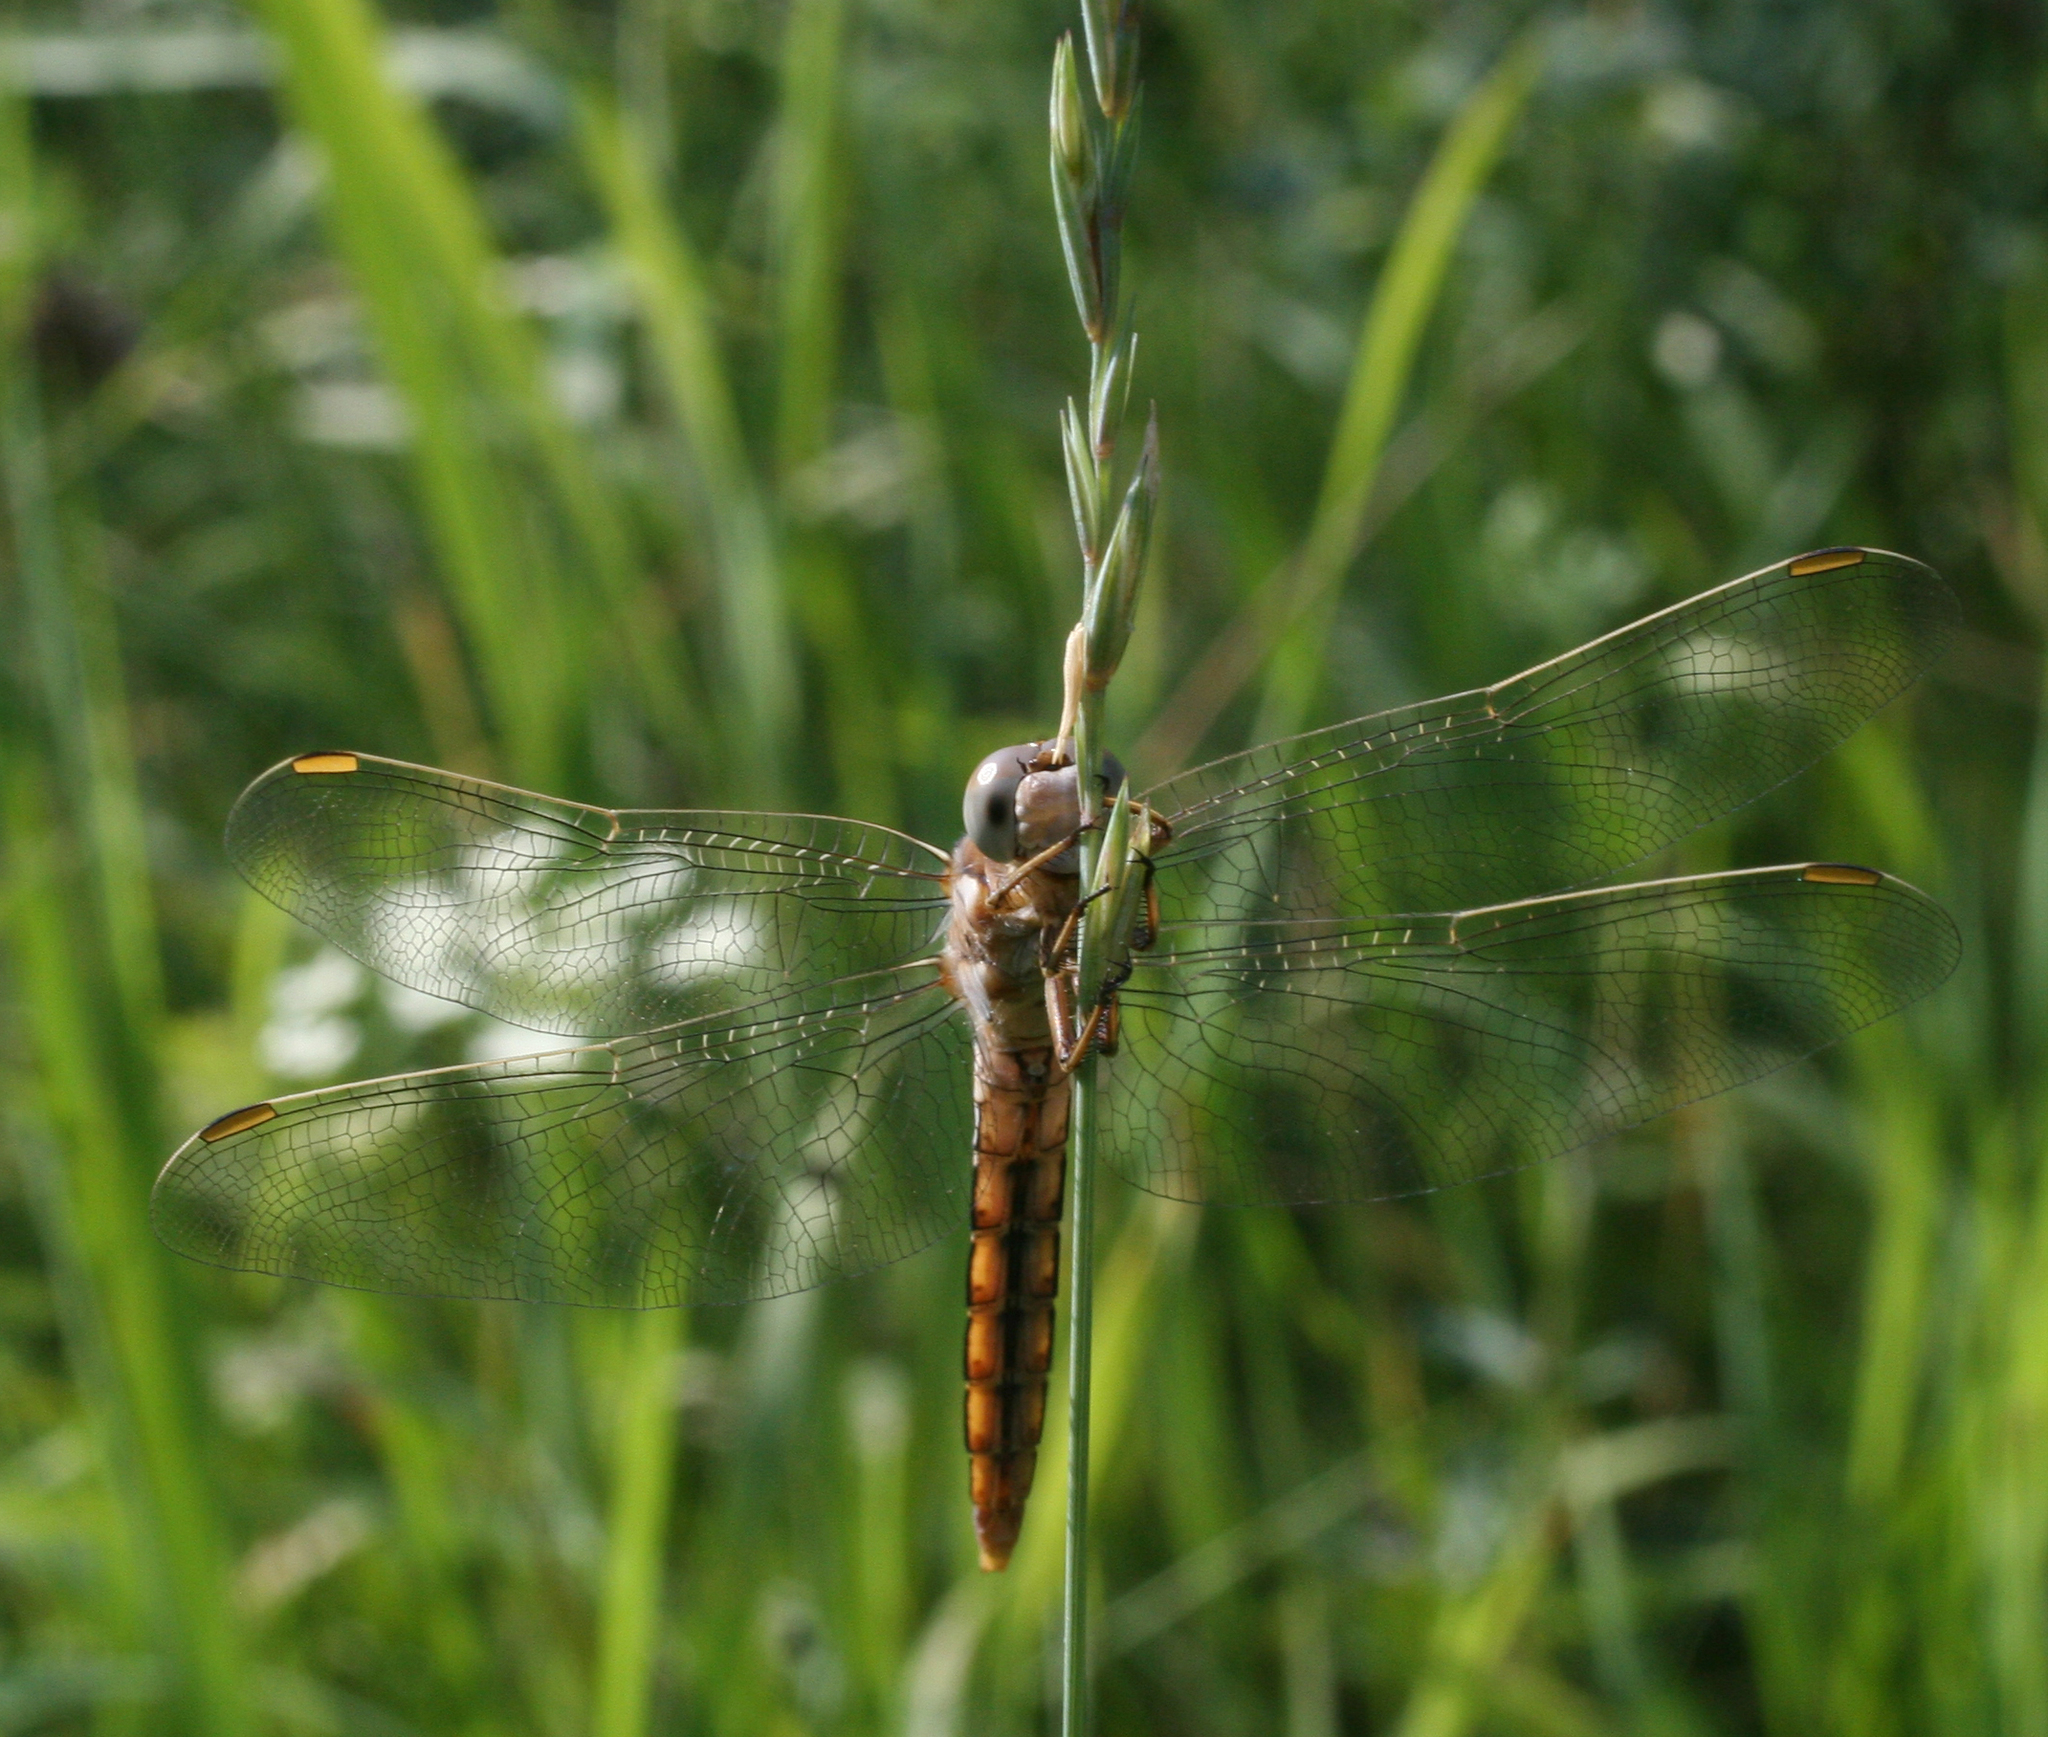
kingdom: Animalia
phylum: Arthropoda
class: Insecta
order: Odonata
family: Libellulidae
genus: Orthetrum
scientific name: Orthetrum brunneum
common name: Southern skimmer
